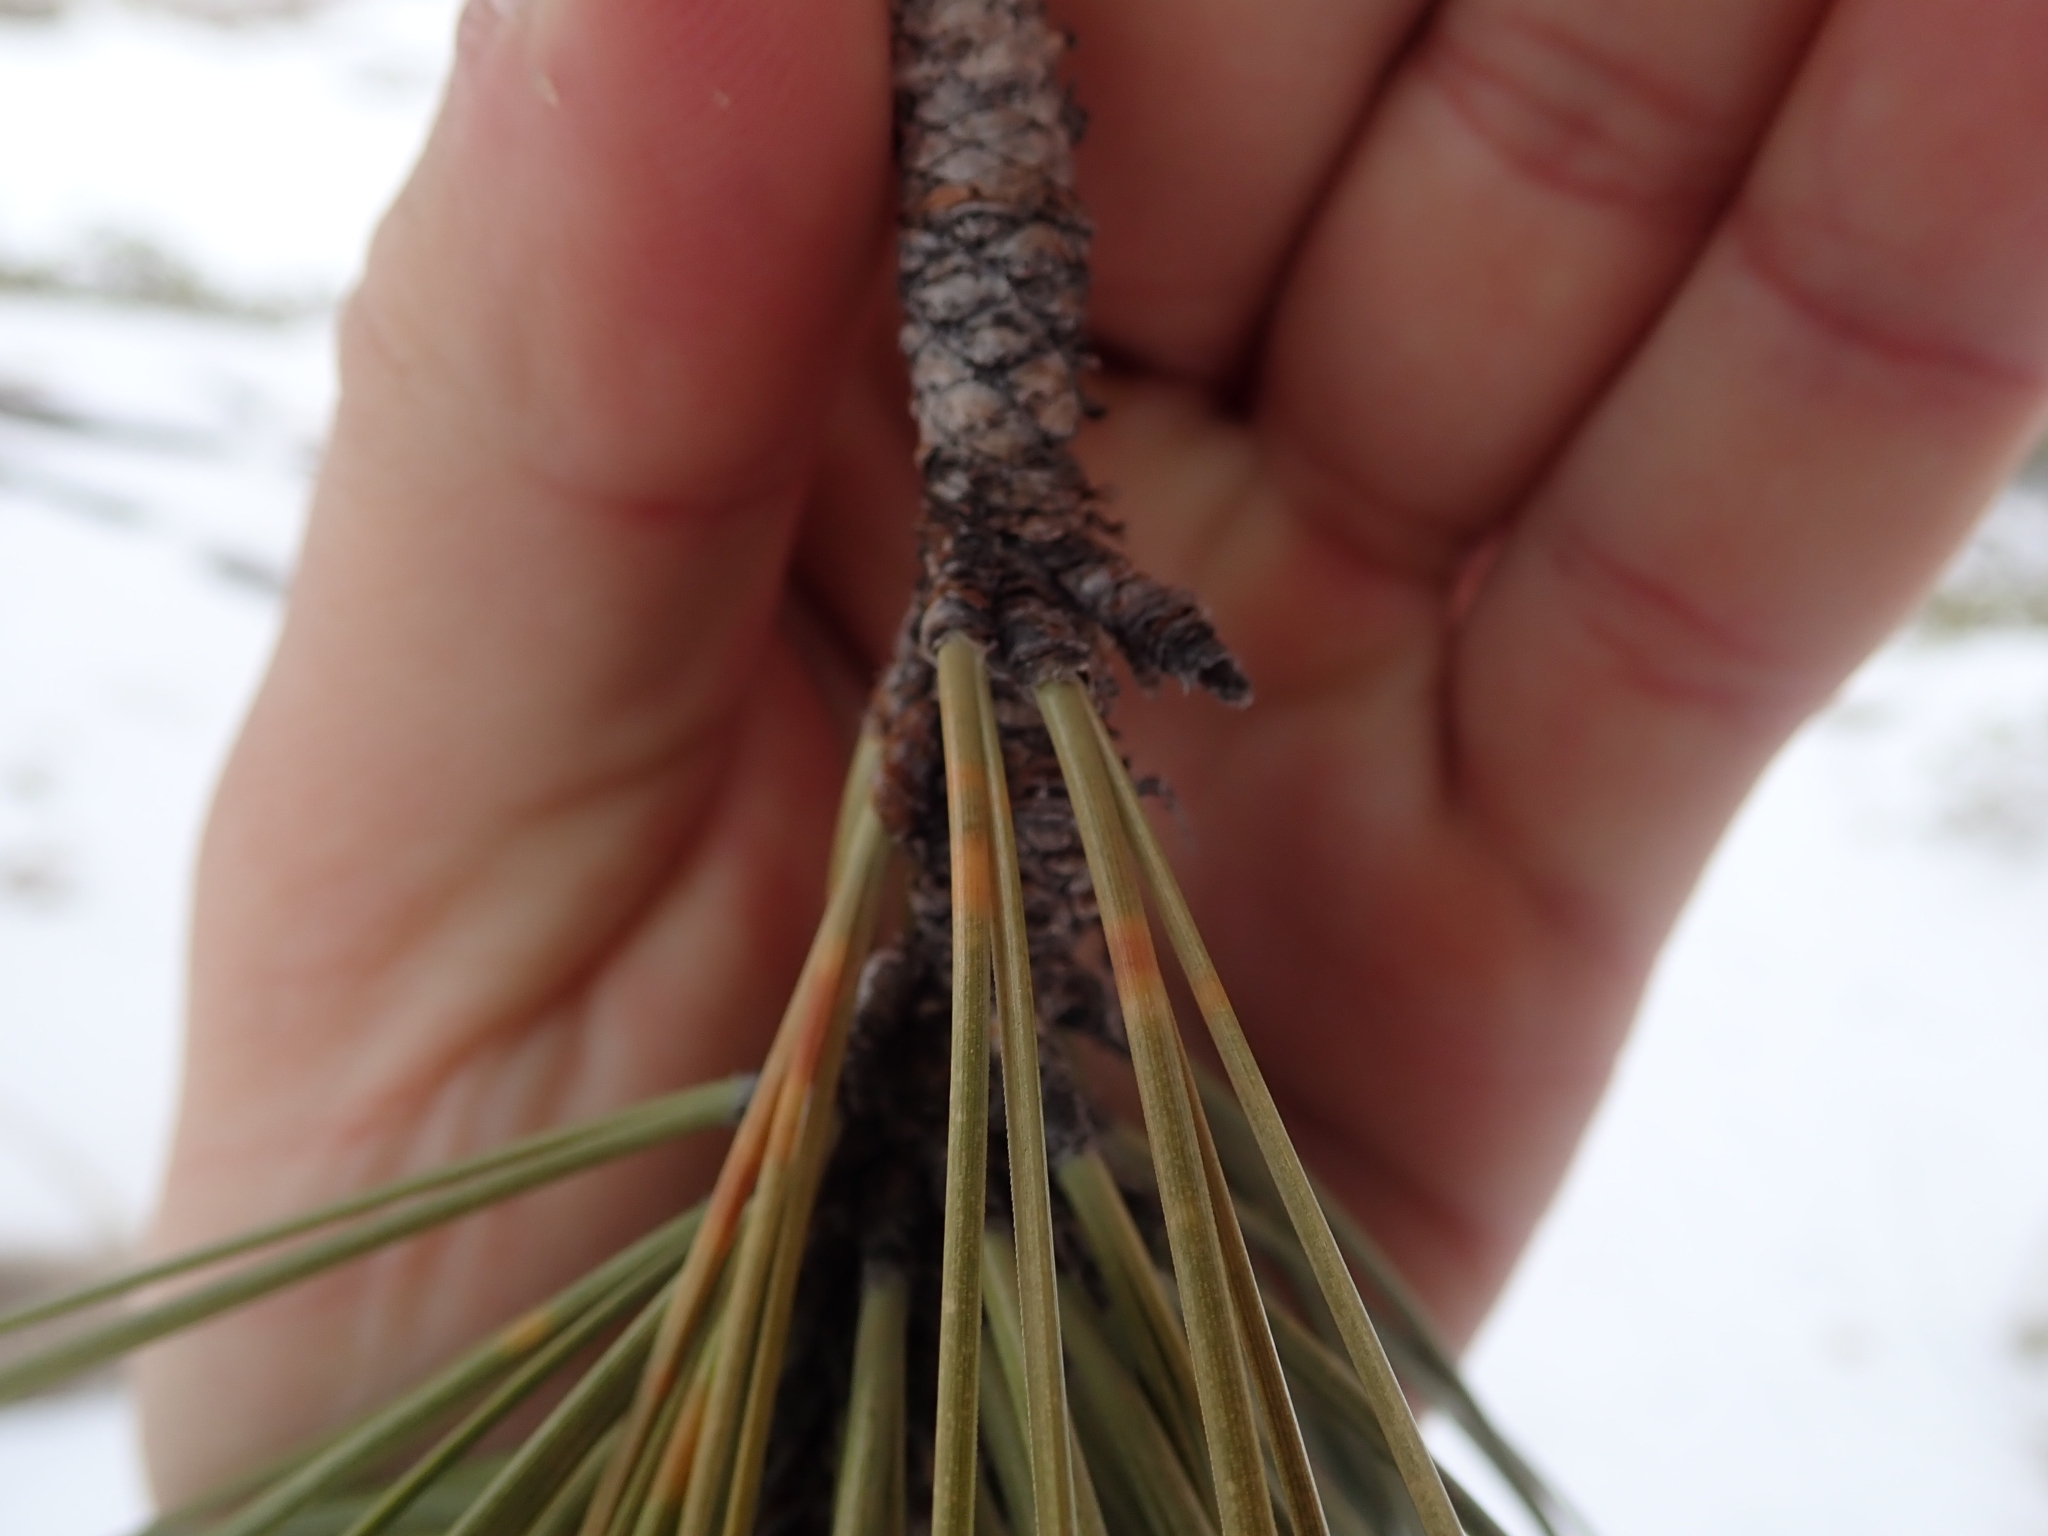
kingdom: Plantae
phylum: Tracheophyta
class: Pinopsida
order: Pinales
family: Pinaceae
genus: Pinus
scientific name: Pinus ponderosa
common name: Western yellow-pine
